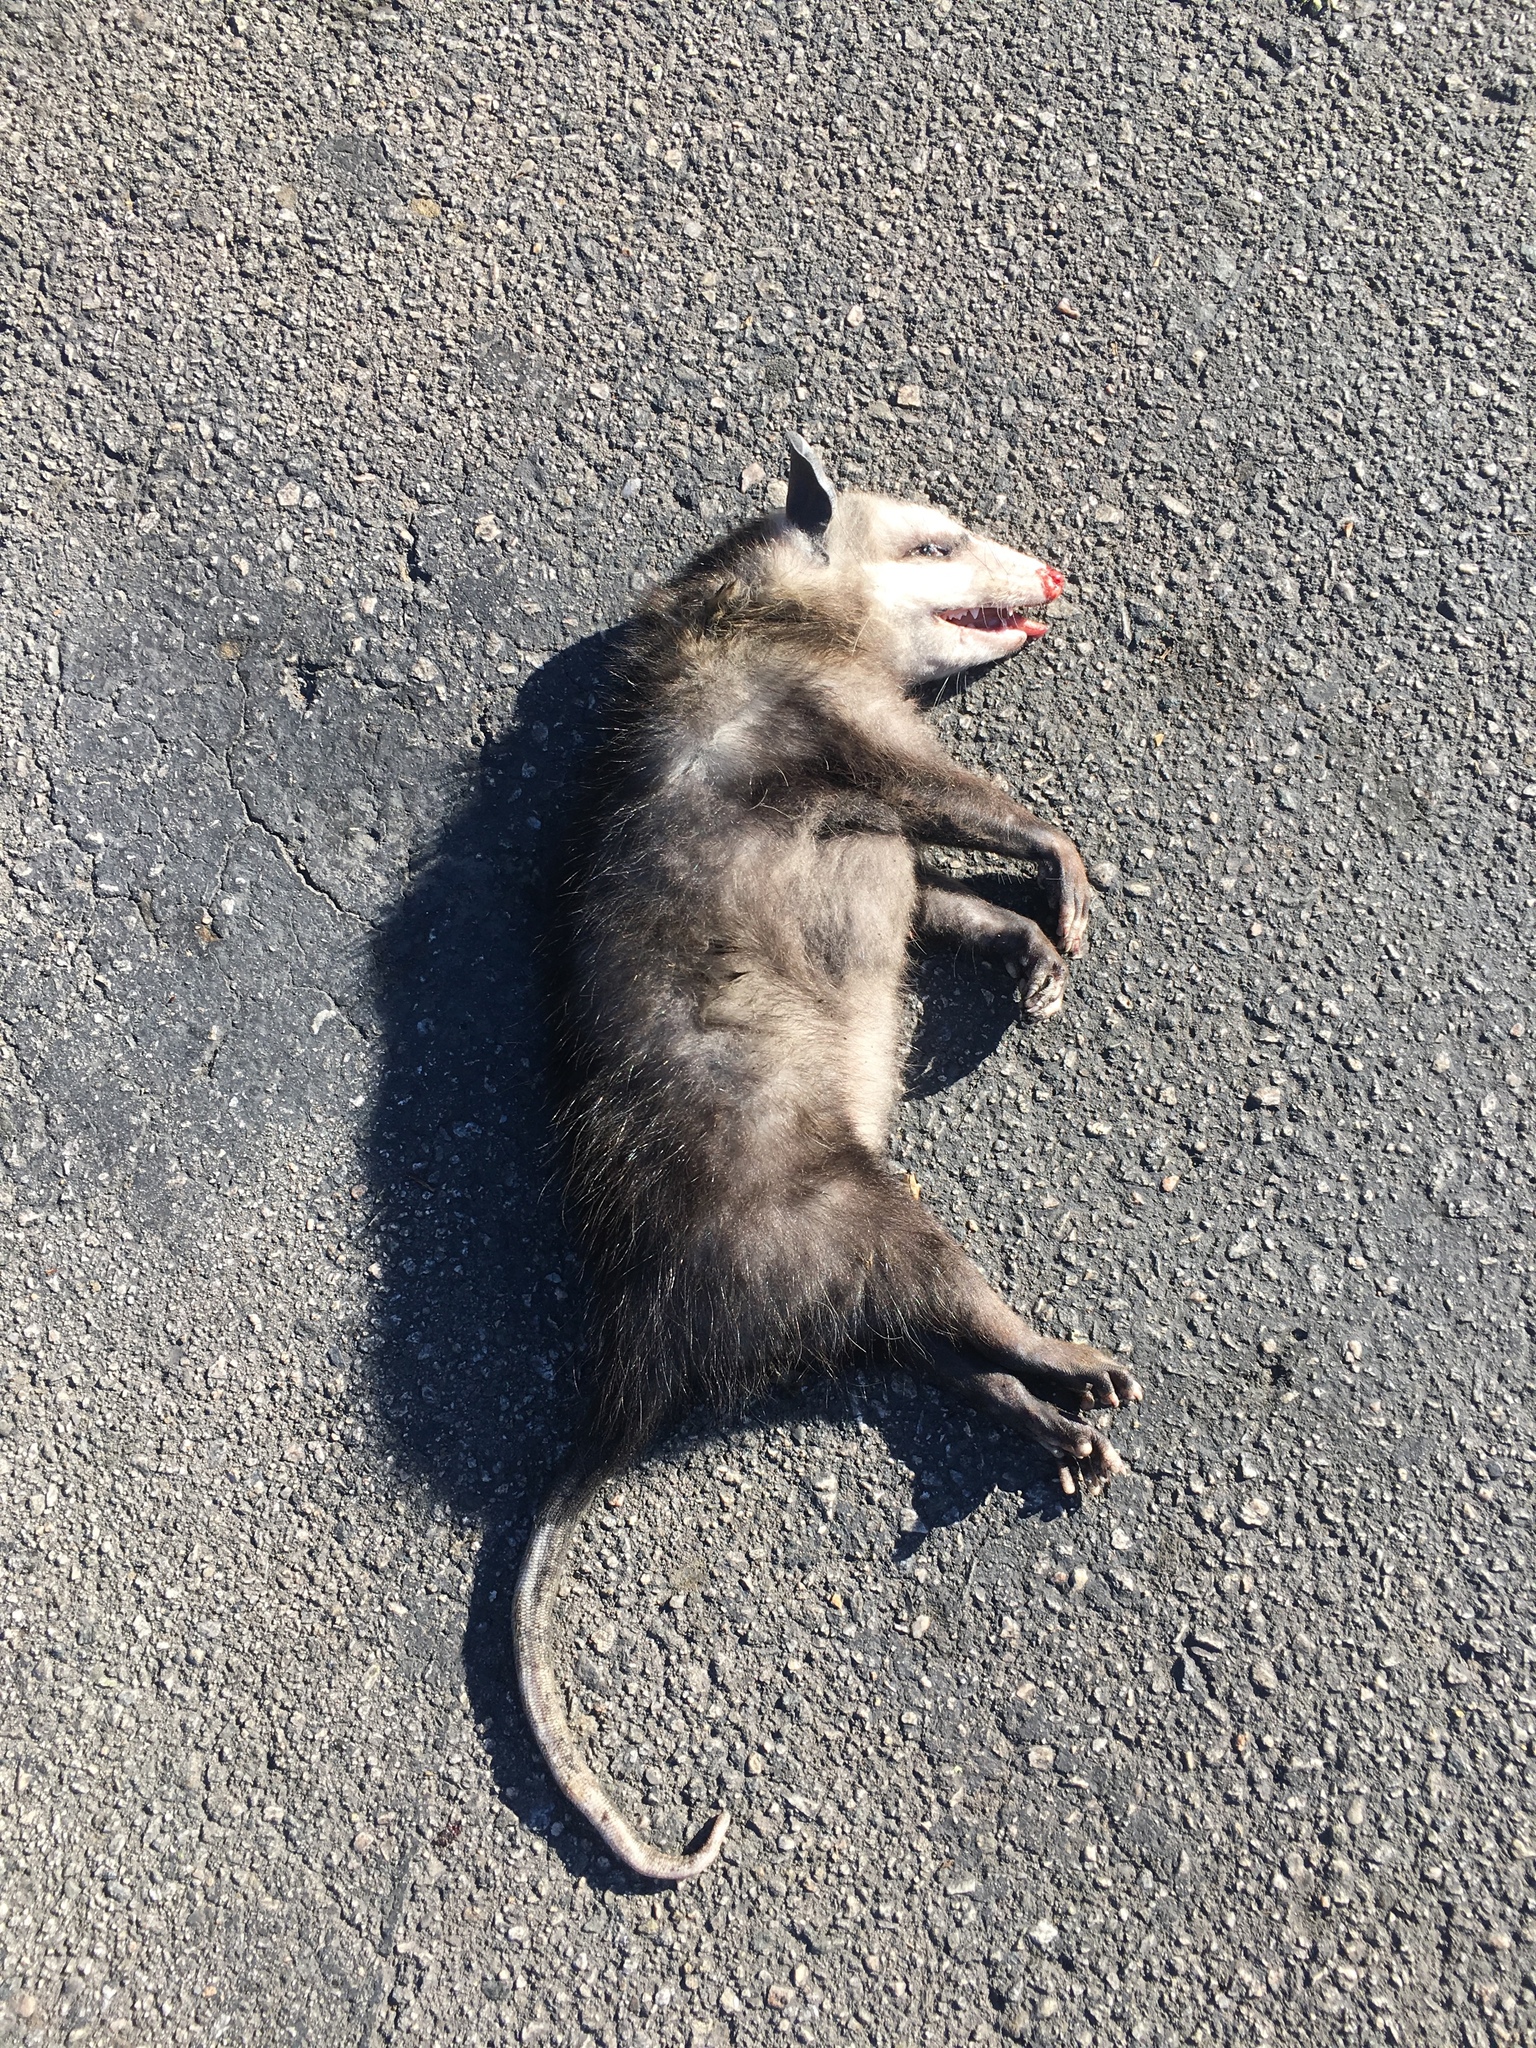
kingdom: Animalia
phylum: Chordata
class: Mammalia
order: Didelphimorphia
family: Didelphidae
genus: Didelphis
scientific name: Didelphis virginiana
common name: Virginia opossum
